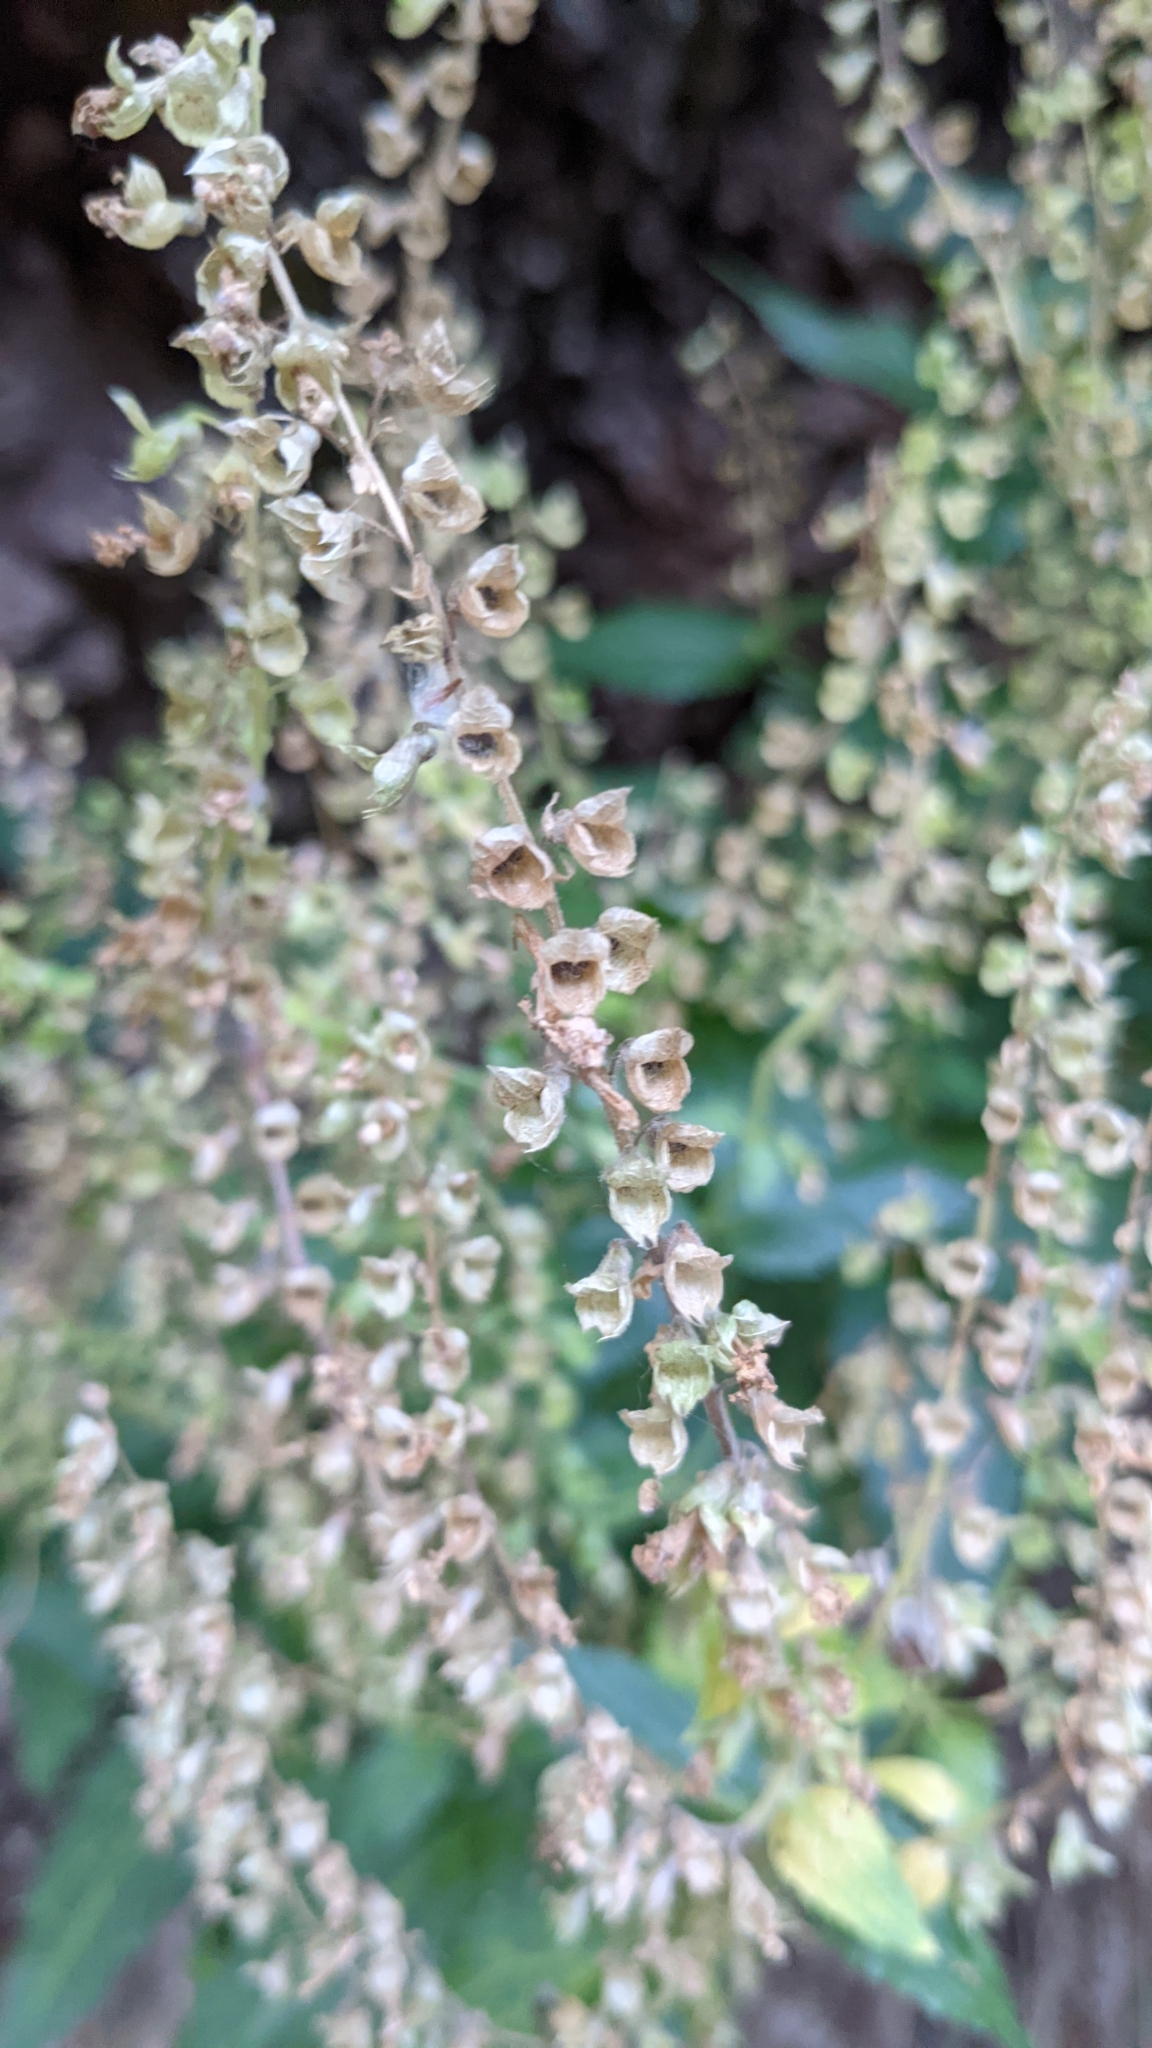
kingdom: Plantae
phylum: Tracheophyta
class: Magnoliopsida
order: Lamiales
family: Lamiaceae
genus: Teucrium
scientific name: Teucrium scorodonia
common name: Woodland germander
